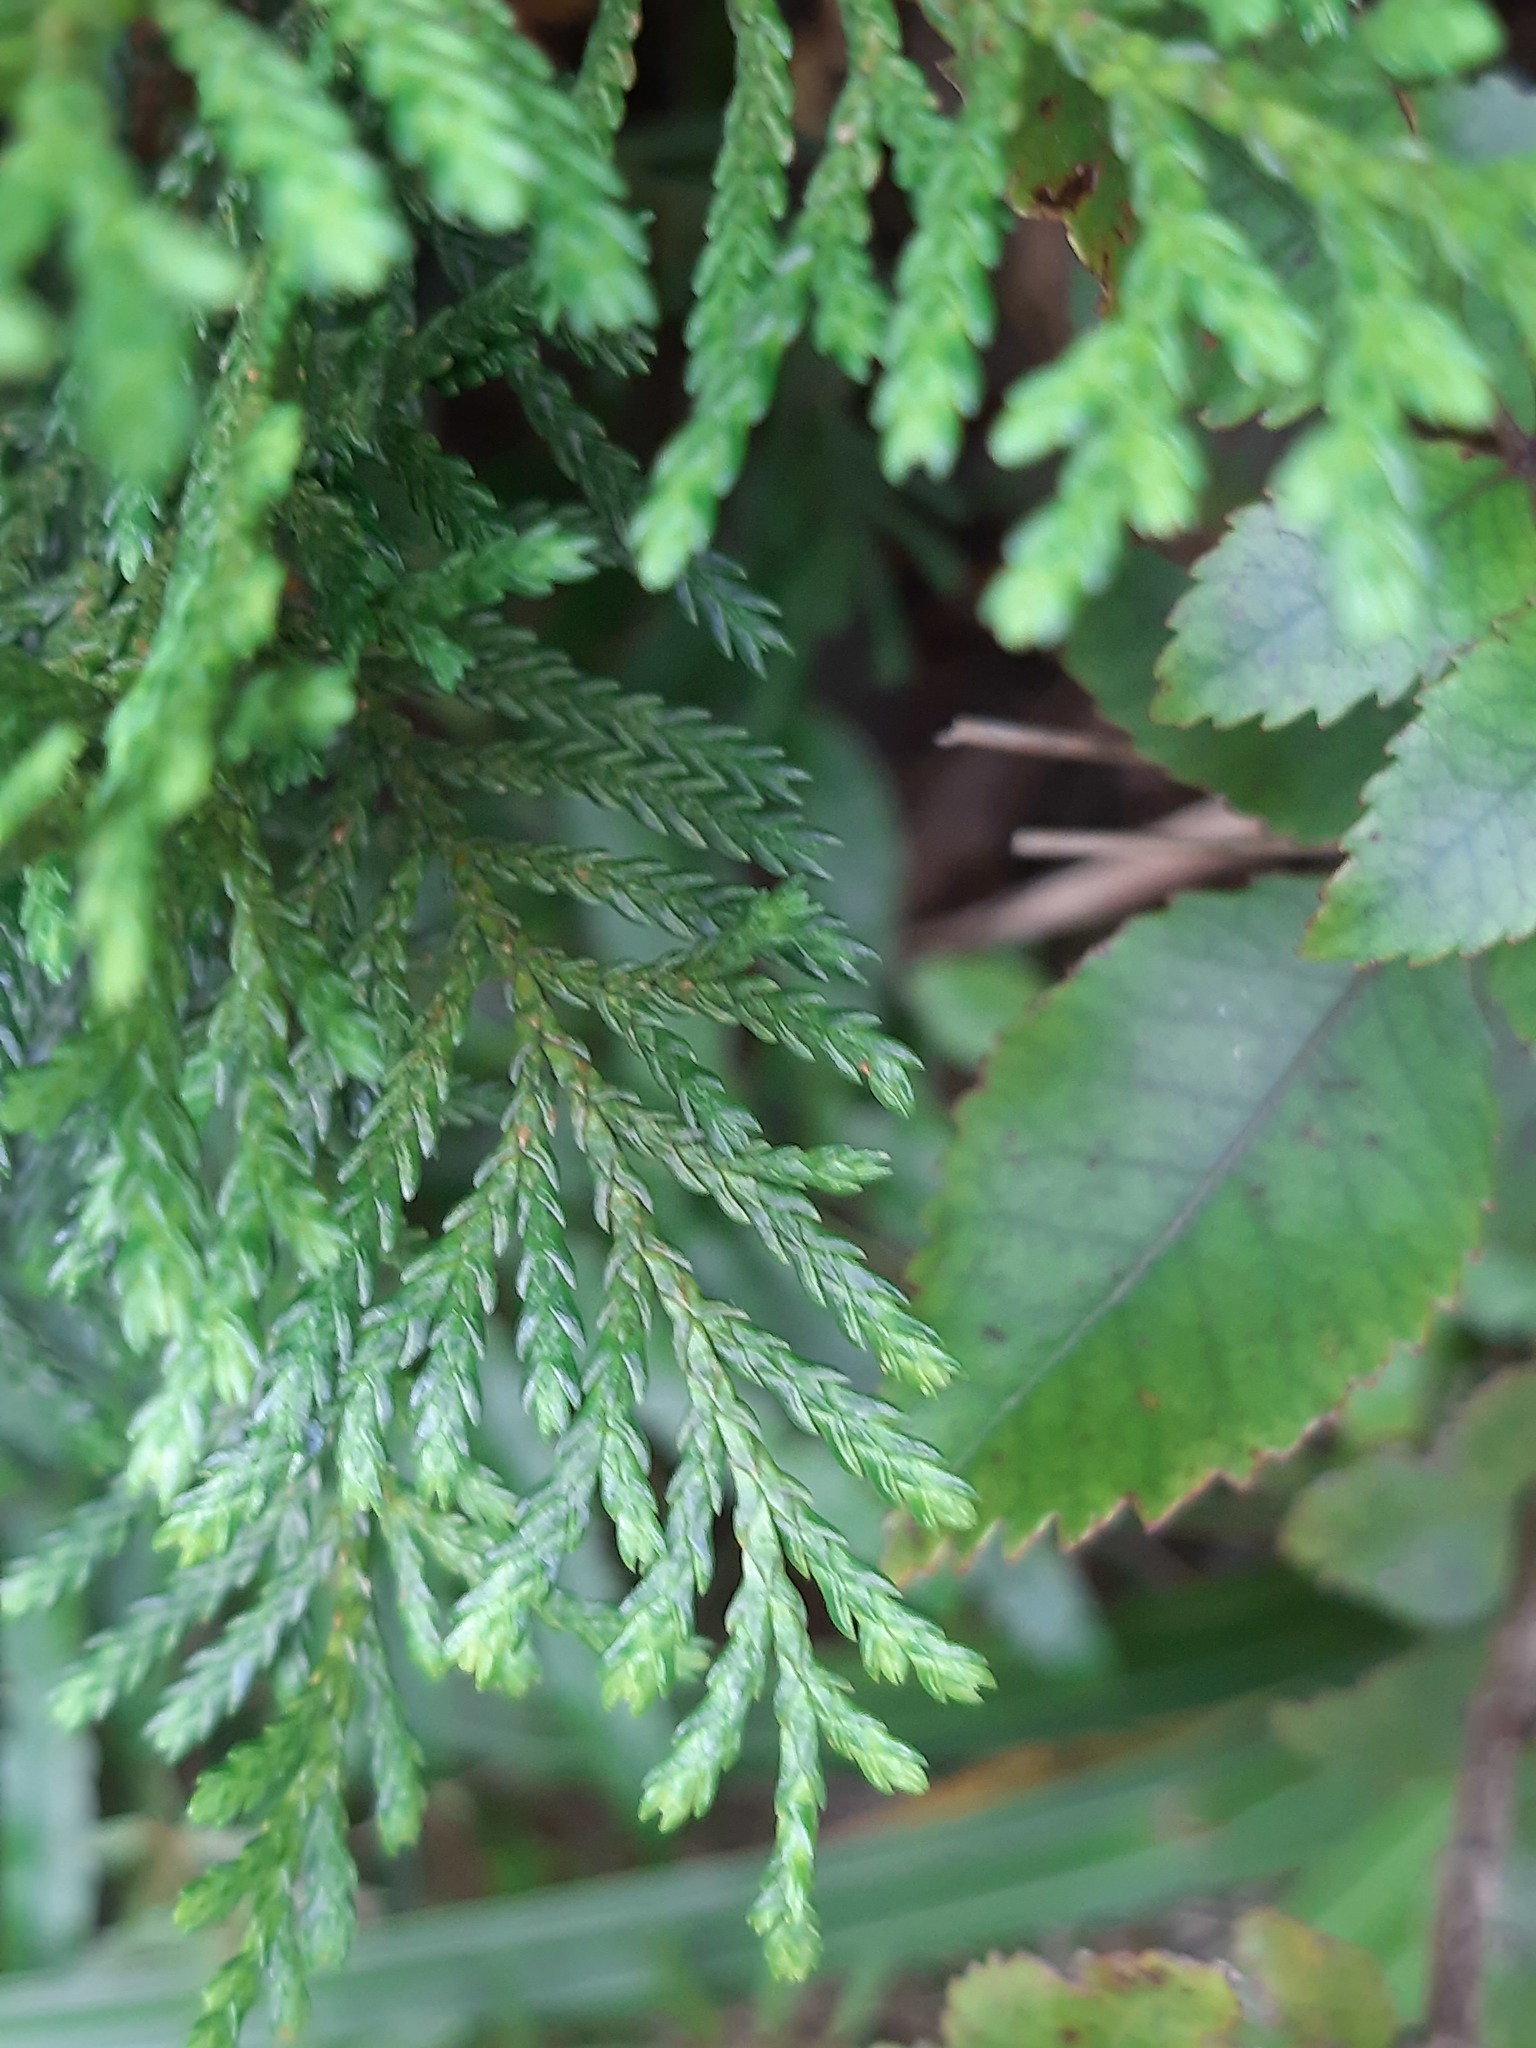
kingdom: Plantae
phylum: Tracheophyta
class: Pinopsida
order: Pinales
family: Cupressaceae
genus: Libocedrus
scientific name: Libocedrus bidwillii
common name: Cedar
